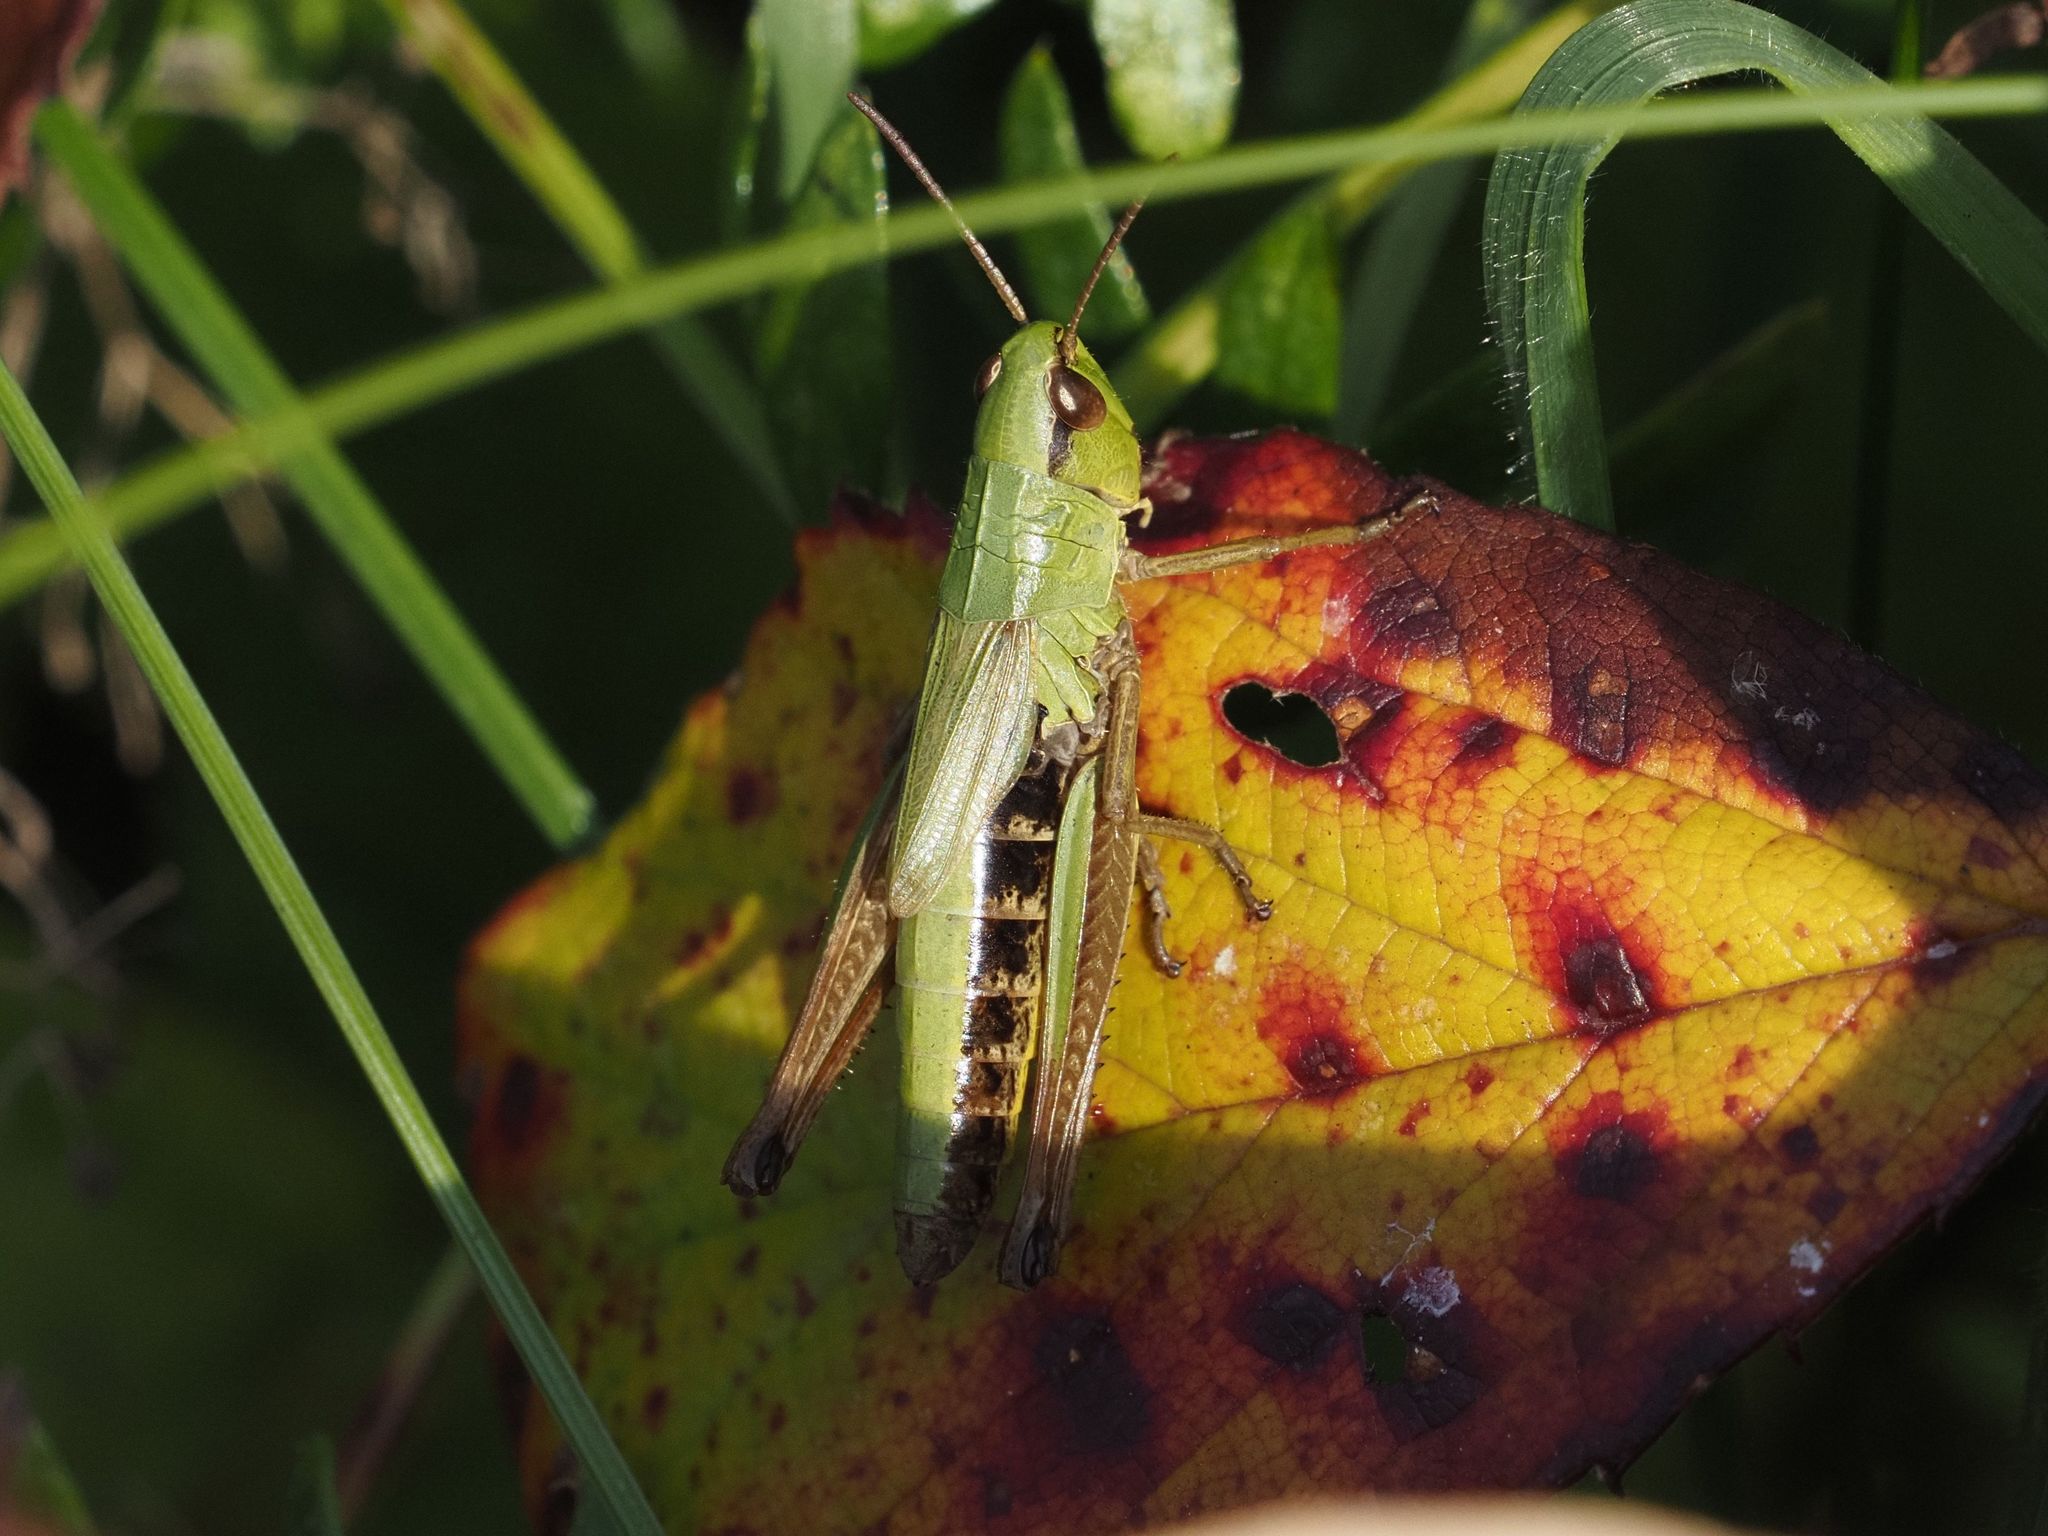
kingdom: Animalia
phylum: Arthropoda
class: Insecta
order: Orthoptera
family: Acrididae
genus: Pseudochorthippus
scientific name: Pseudochorthippus parallelus
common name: Meadow grasshopper
